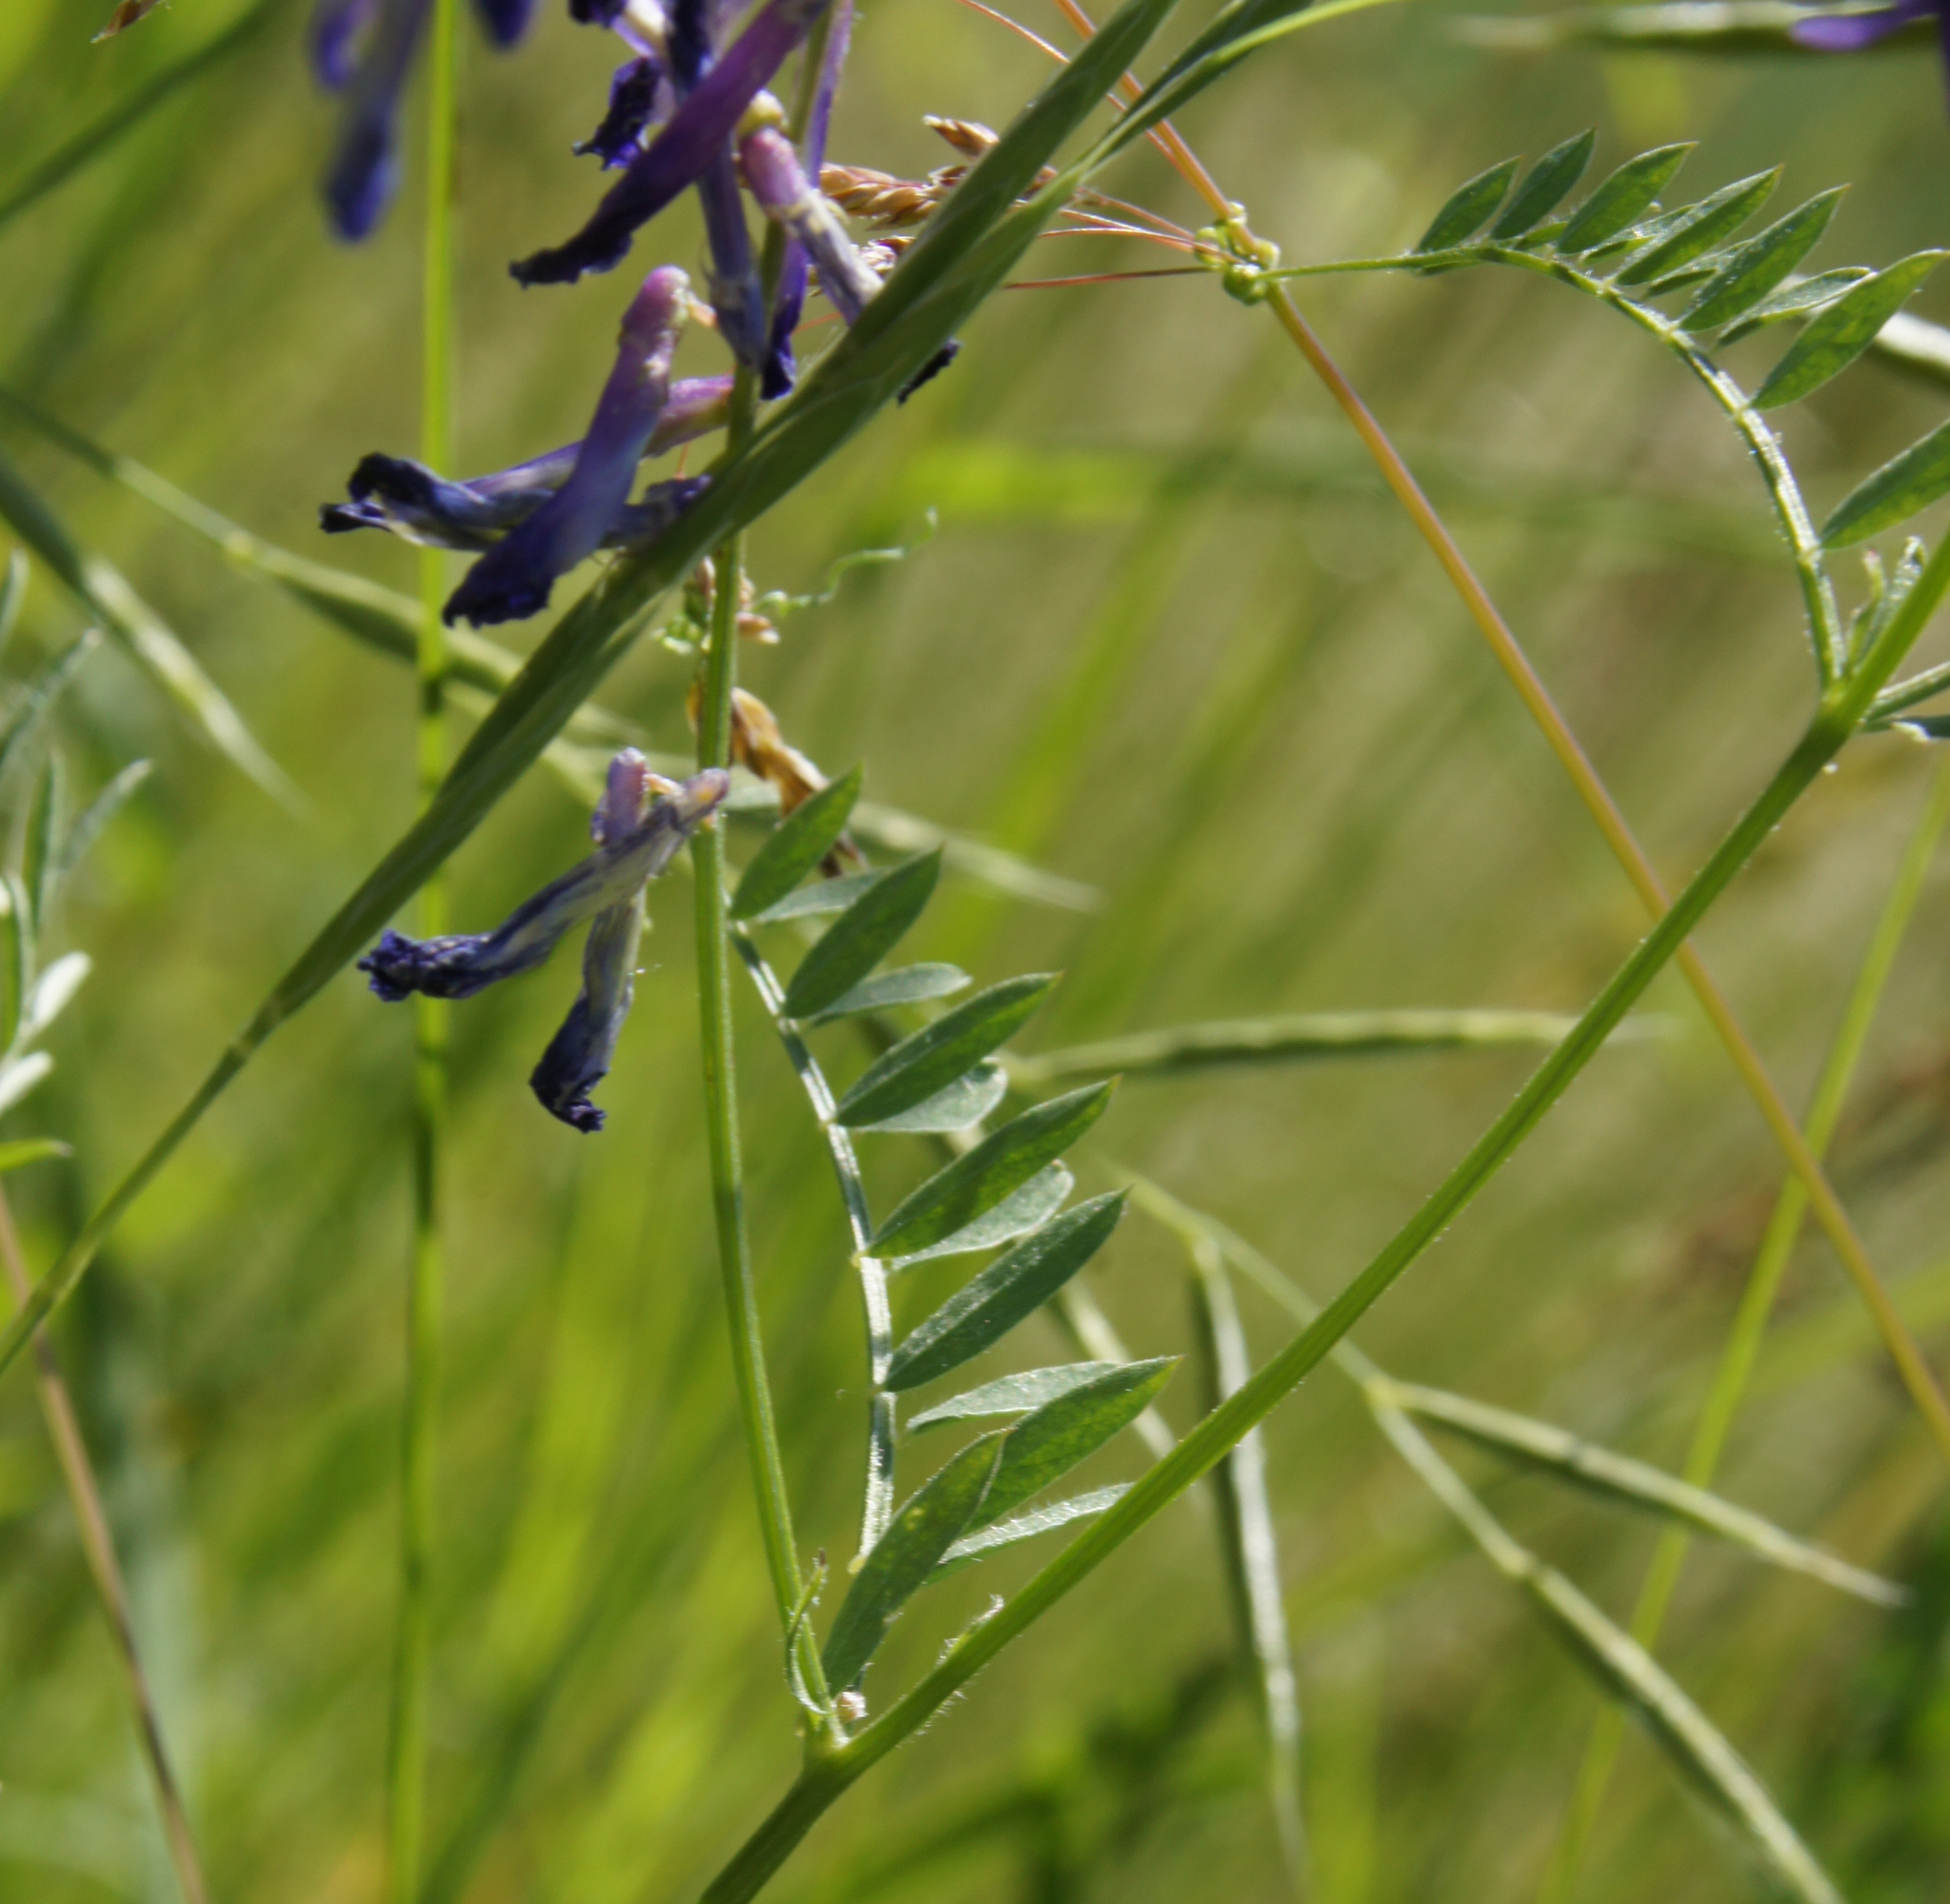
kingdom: Plantae
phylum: Tracheophyta
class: Magnoliopsida
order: Fabales
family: Fabaceae
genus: Vicia
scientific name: Vicia villosa
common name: Fodder vetch
